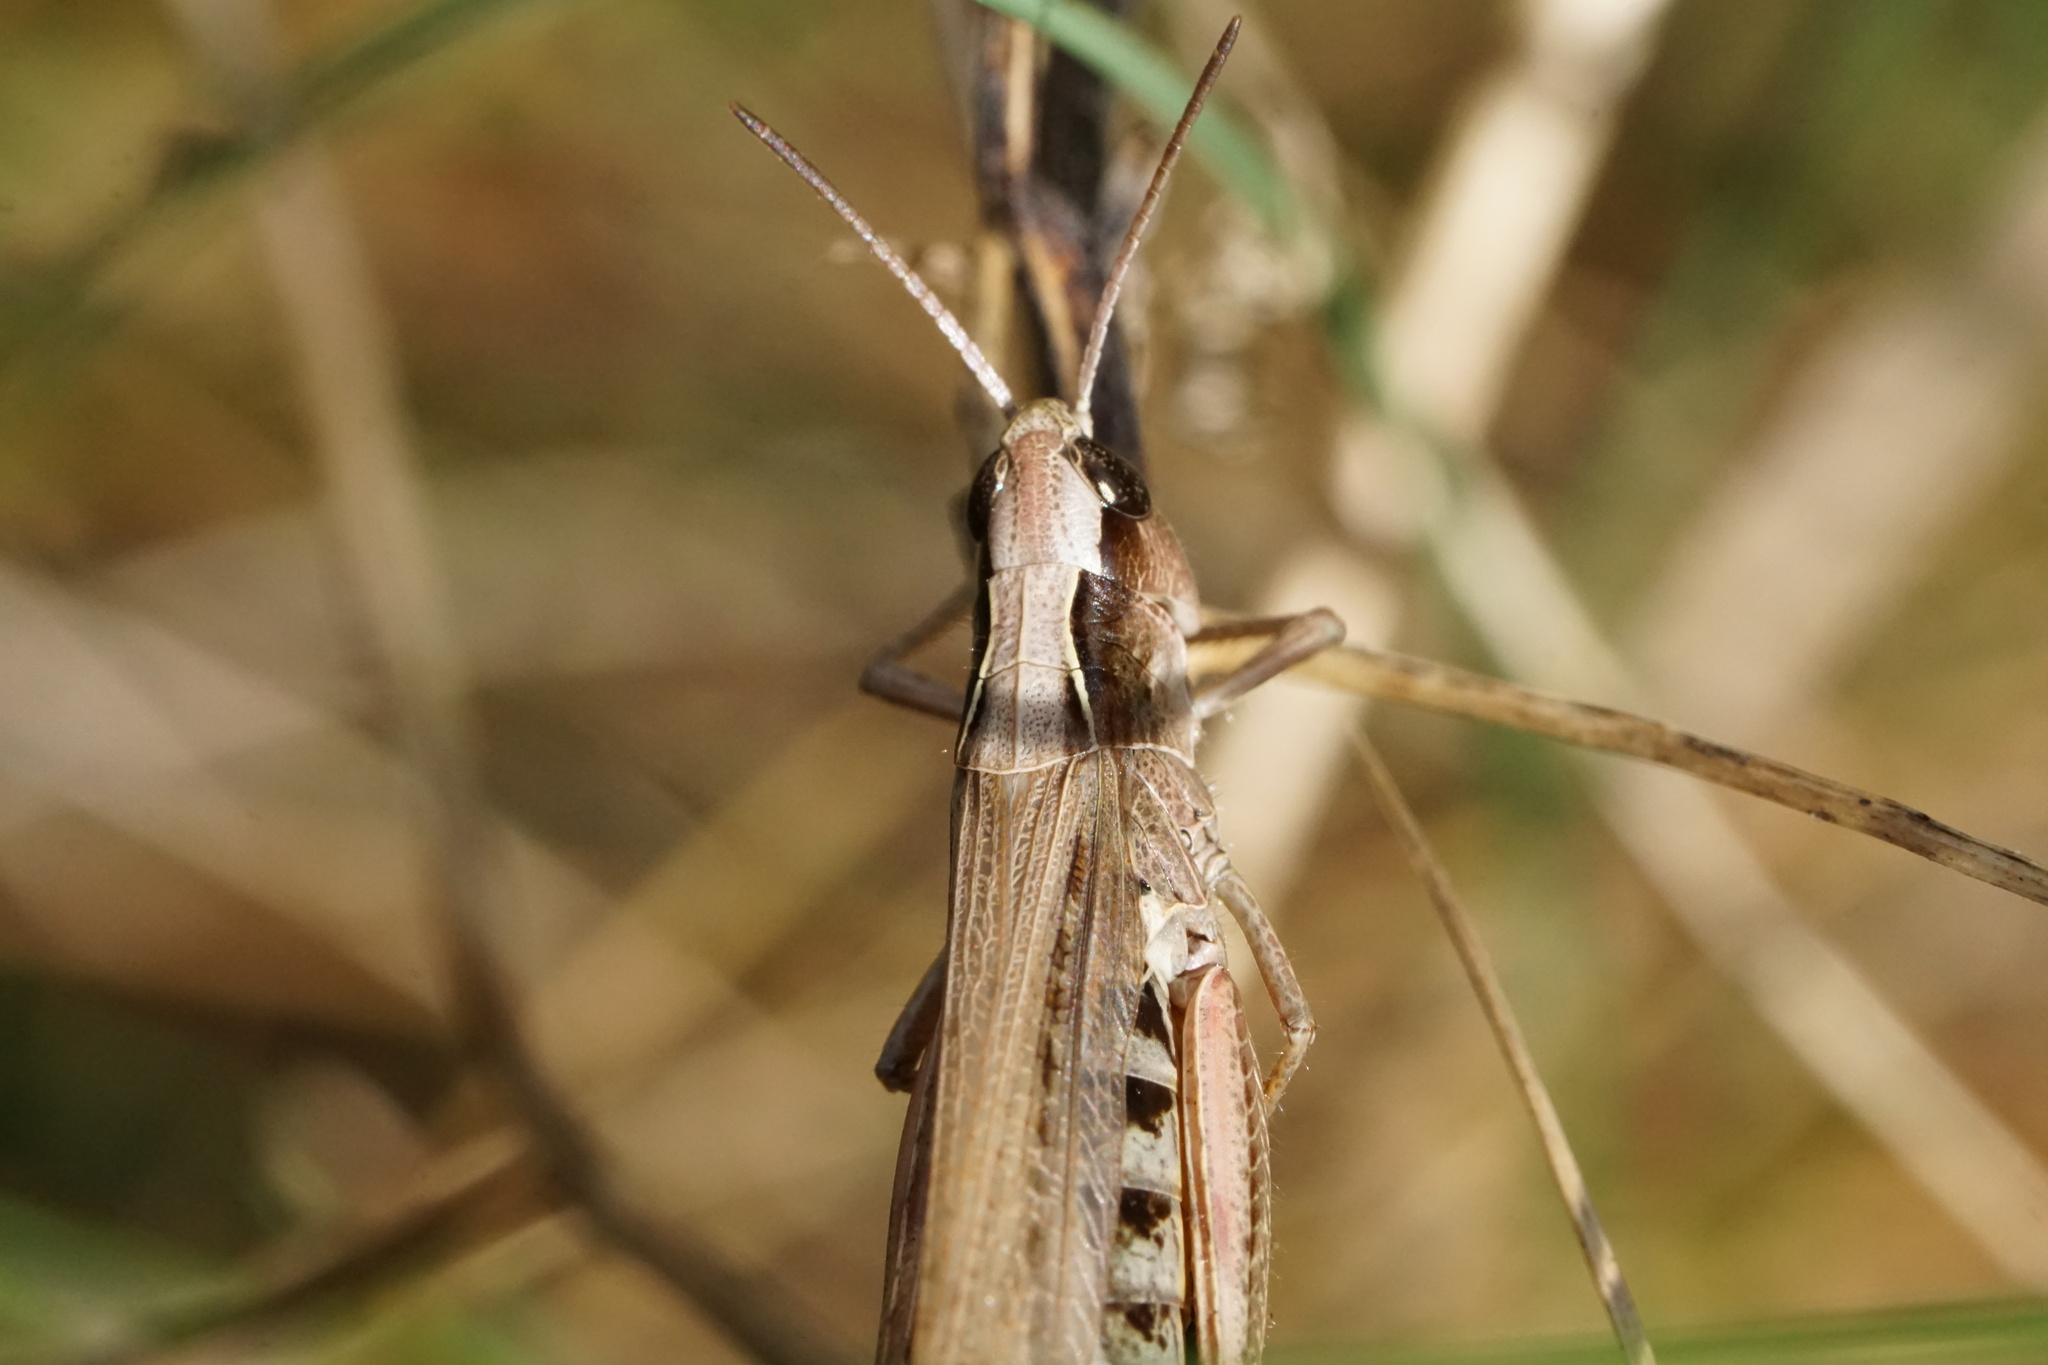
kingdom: Animalia
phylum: Arthropoda
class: Insecta
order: Orthoptera
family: Acrididae
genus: Pseudochorthippus
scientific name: Pseudochorthippus curtipennis
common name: Marsh meadow grasshopper
